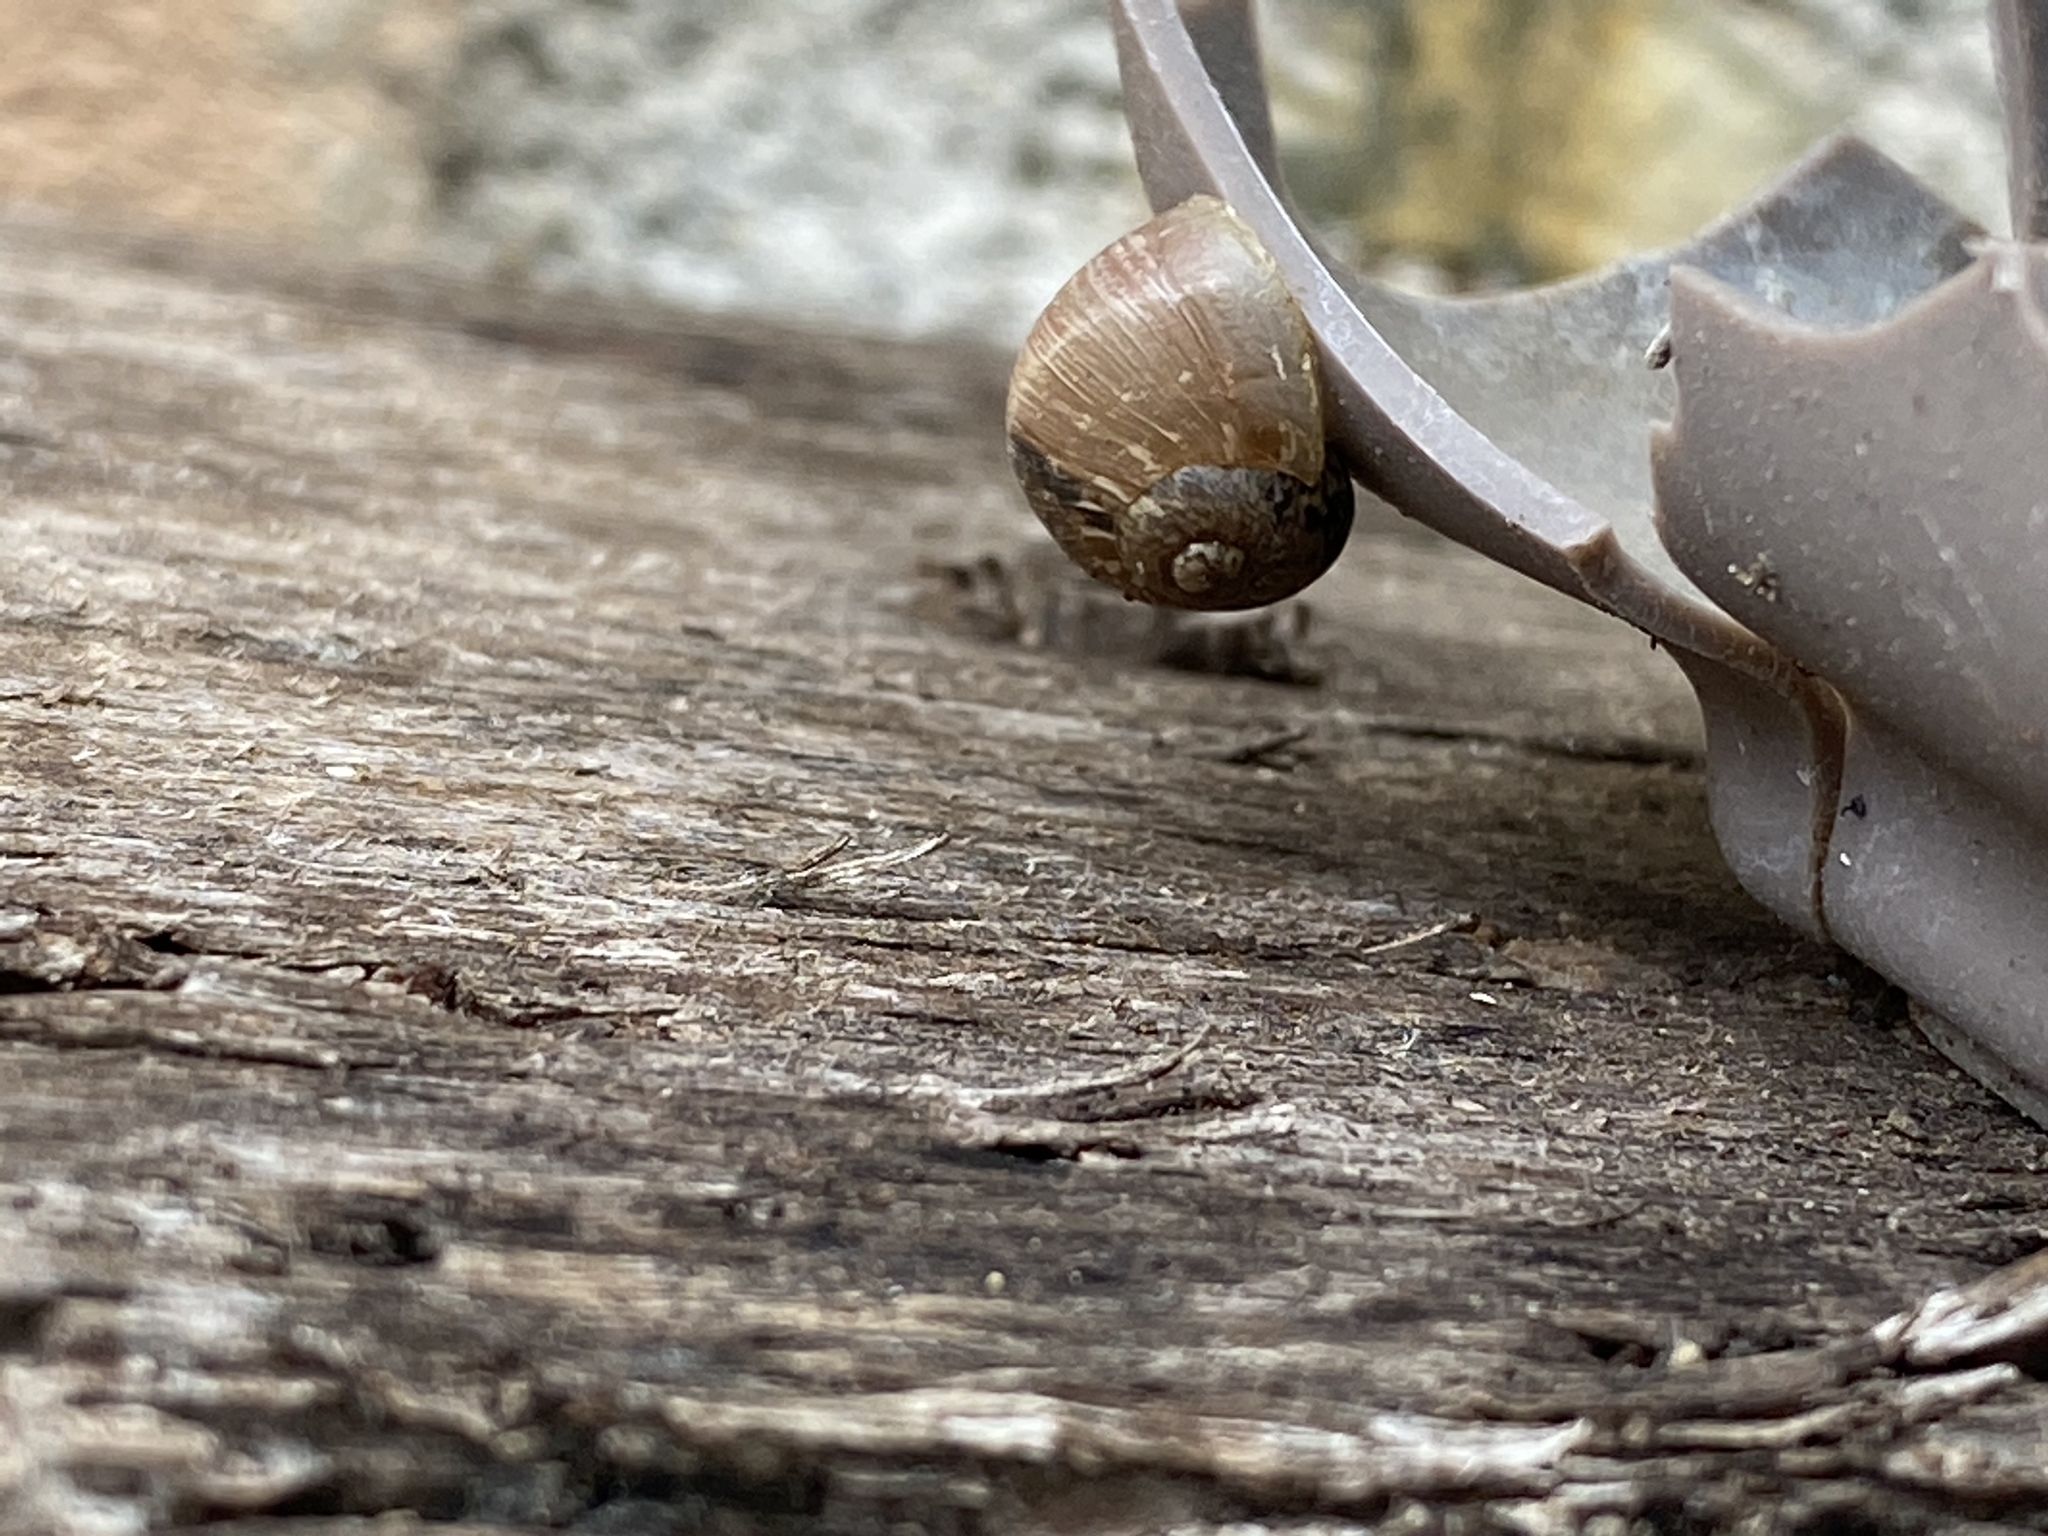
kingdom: Animalia
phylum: Mollusca
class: Gastropoda
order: Stylommatophora
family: Helicidae
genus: Cornu
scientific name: Cornu aspersum
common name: Brown garden snail
